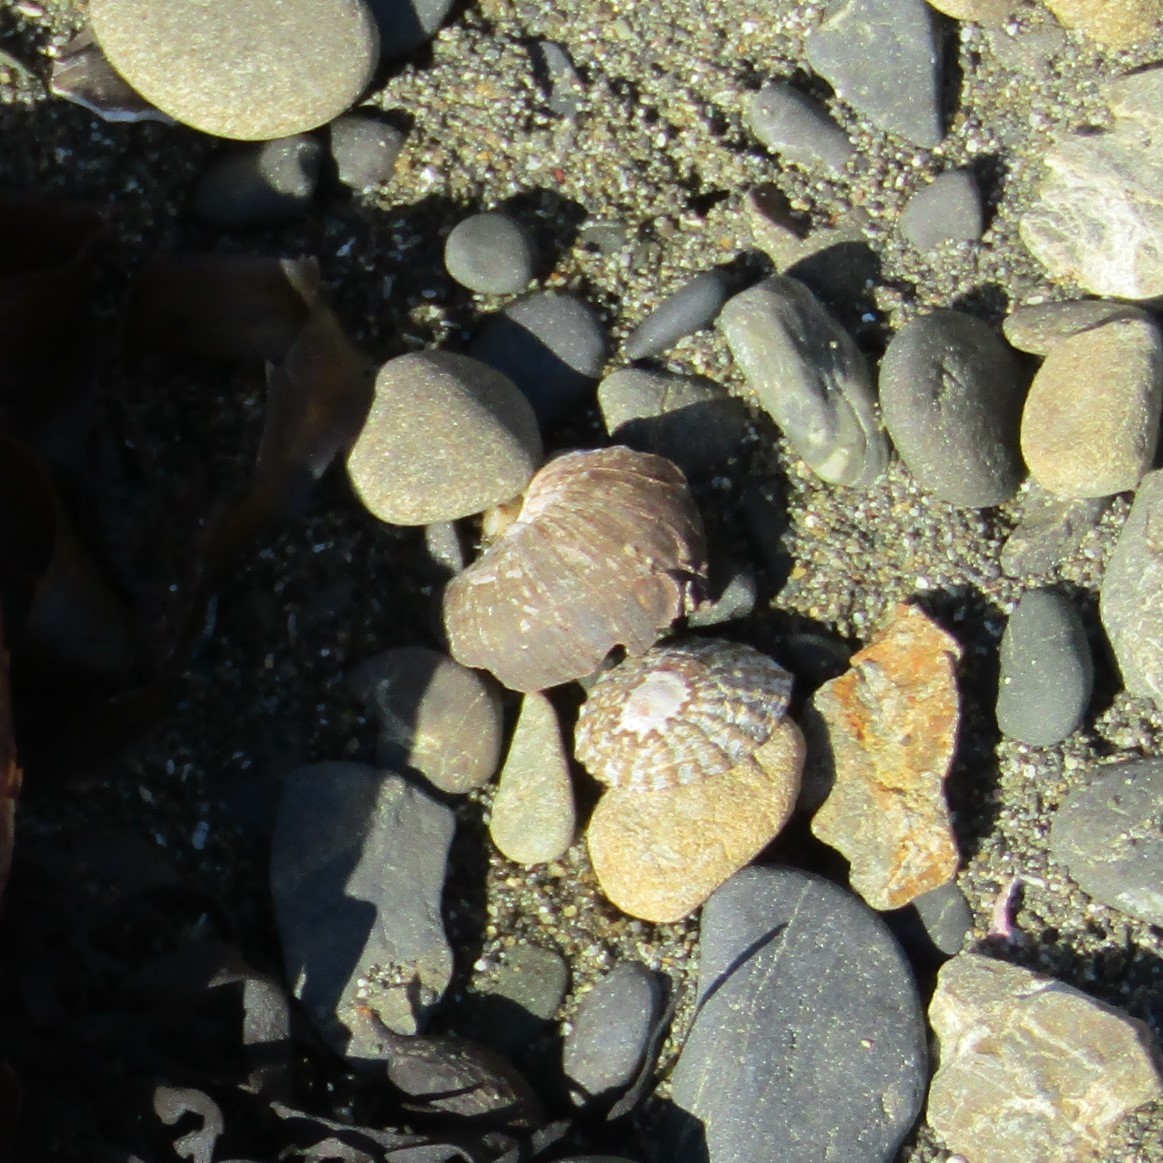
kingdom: Animalia
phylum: Mollusca
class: Gastropoda
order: Trochida
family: Turbinidae
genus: Lunella
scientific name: Lunella smaragda
